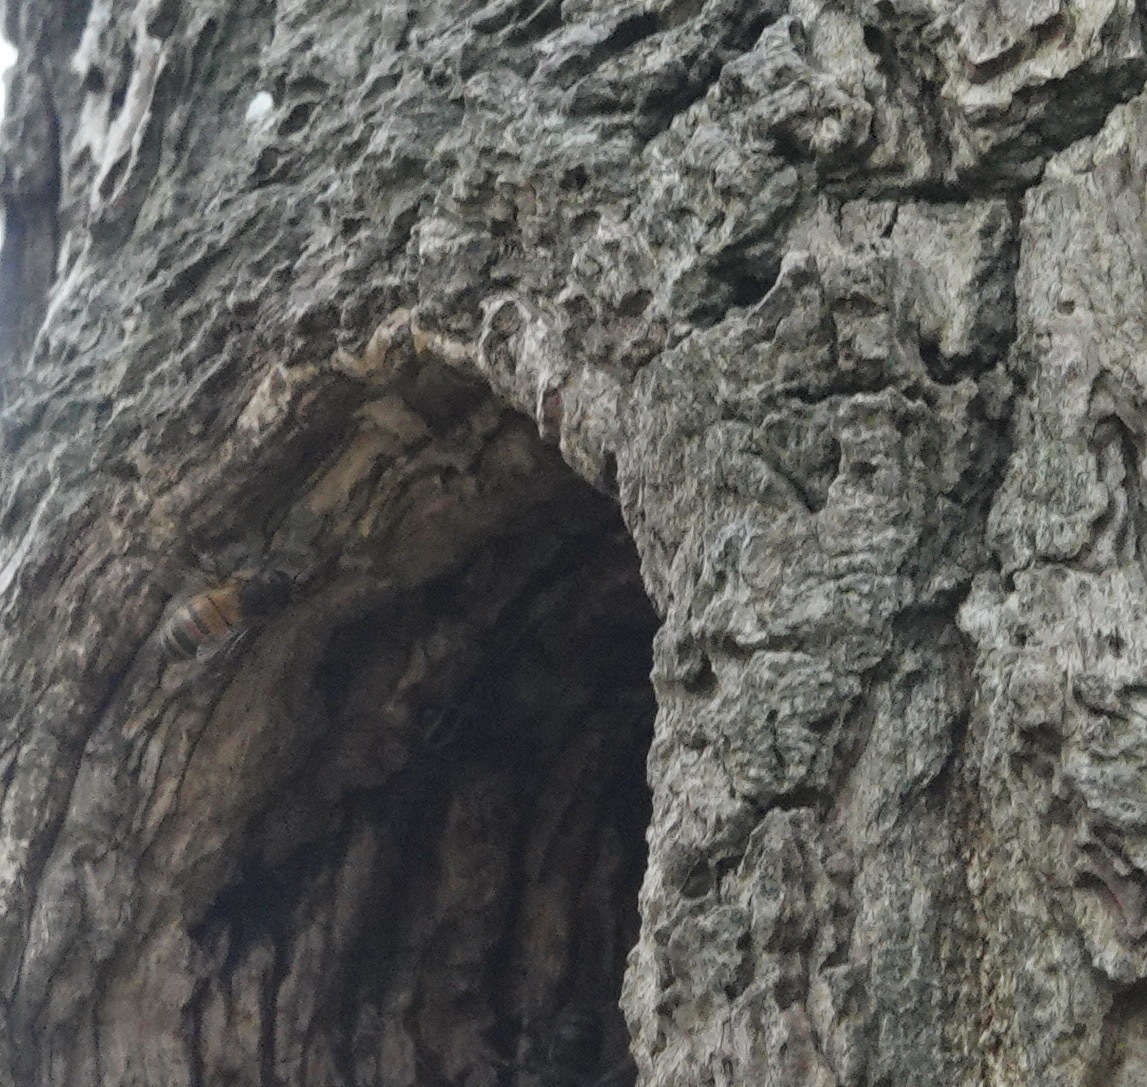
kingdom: Animalia
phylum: Arthropoda
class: Insecta
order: Hymenoptera
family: Apidae
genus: Apis
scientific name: Apis mellifera
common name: Honey bee
